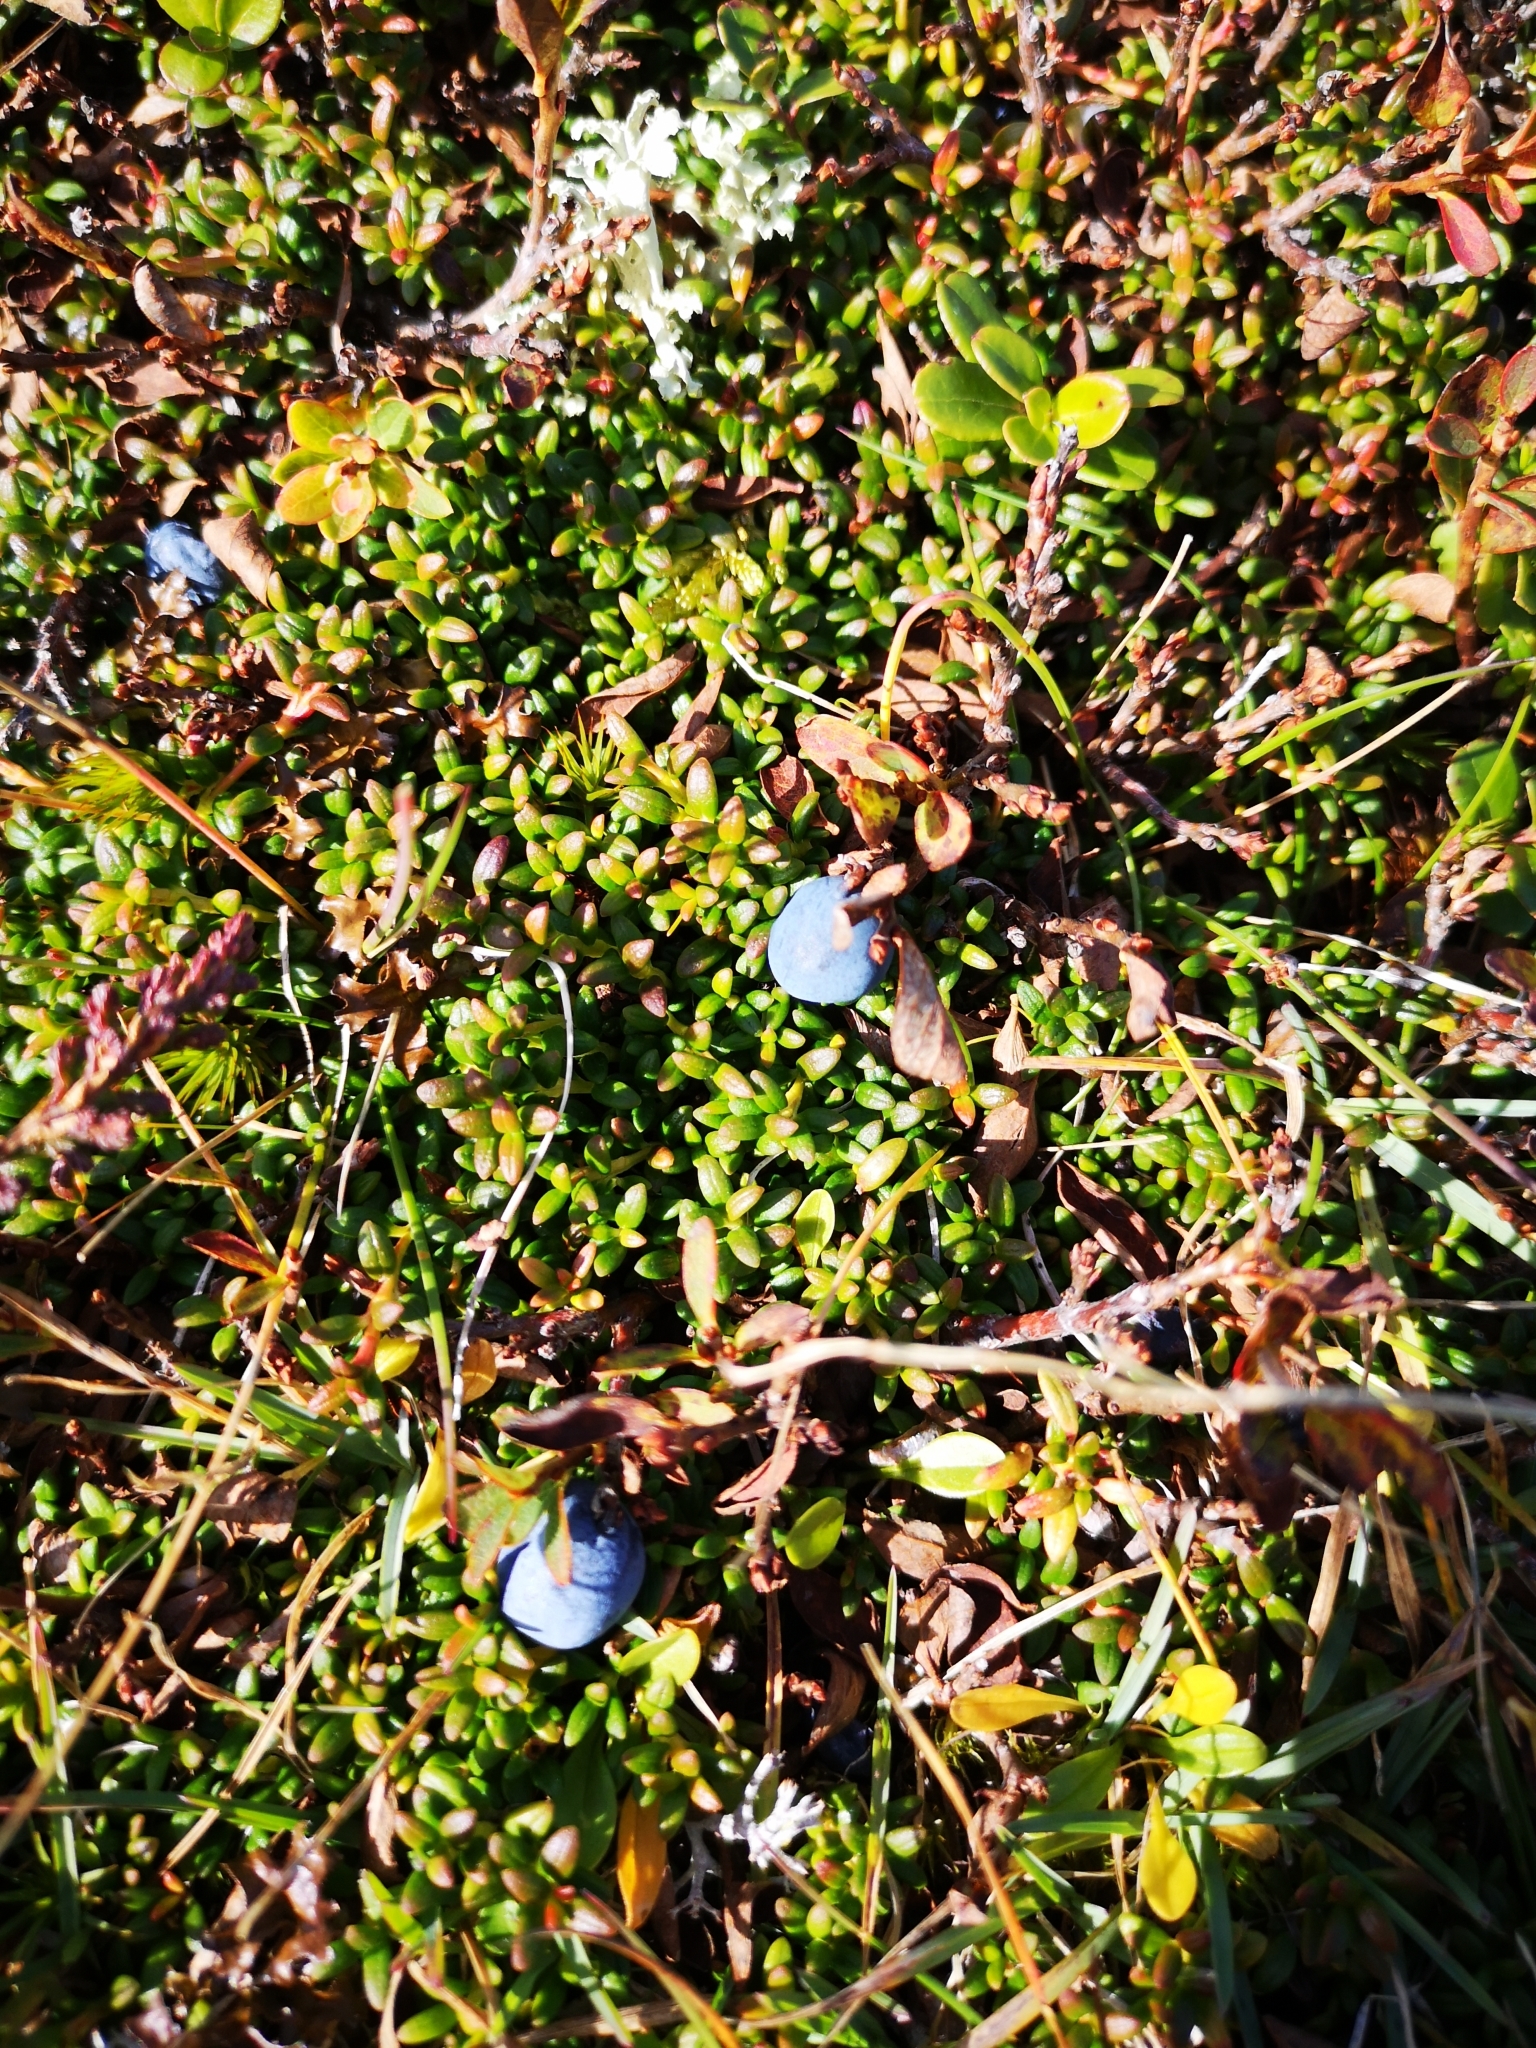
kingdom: Plantae
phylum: Tracheophyta
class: Magnoliopsida
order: Ericales
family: Ericaceae
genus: Vaccinium
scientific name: Vaccinium uliginosum
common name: Bog bilberry
